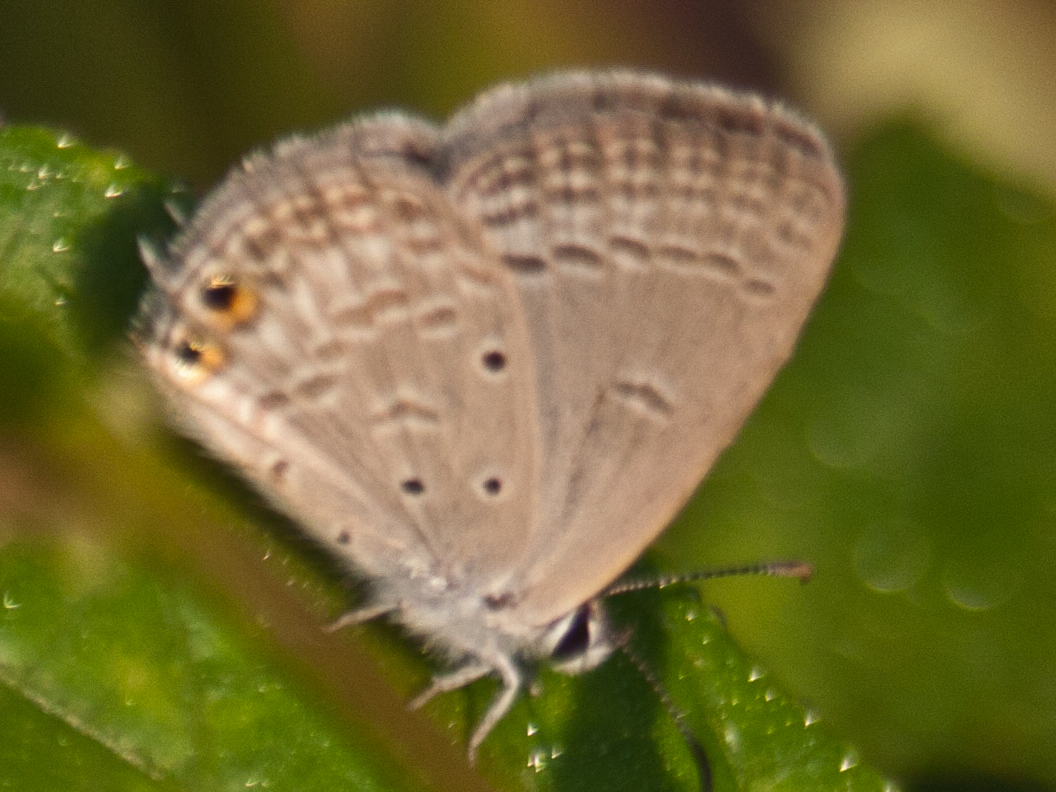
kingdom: Animalia
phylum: Arthropoda
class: Insecta
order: Lepidoptera
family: Lycaenidae
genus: Euchrysops
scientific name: Euchrysops cnejus
